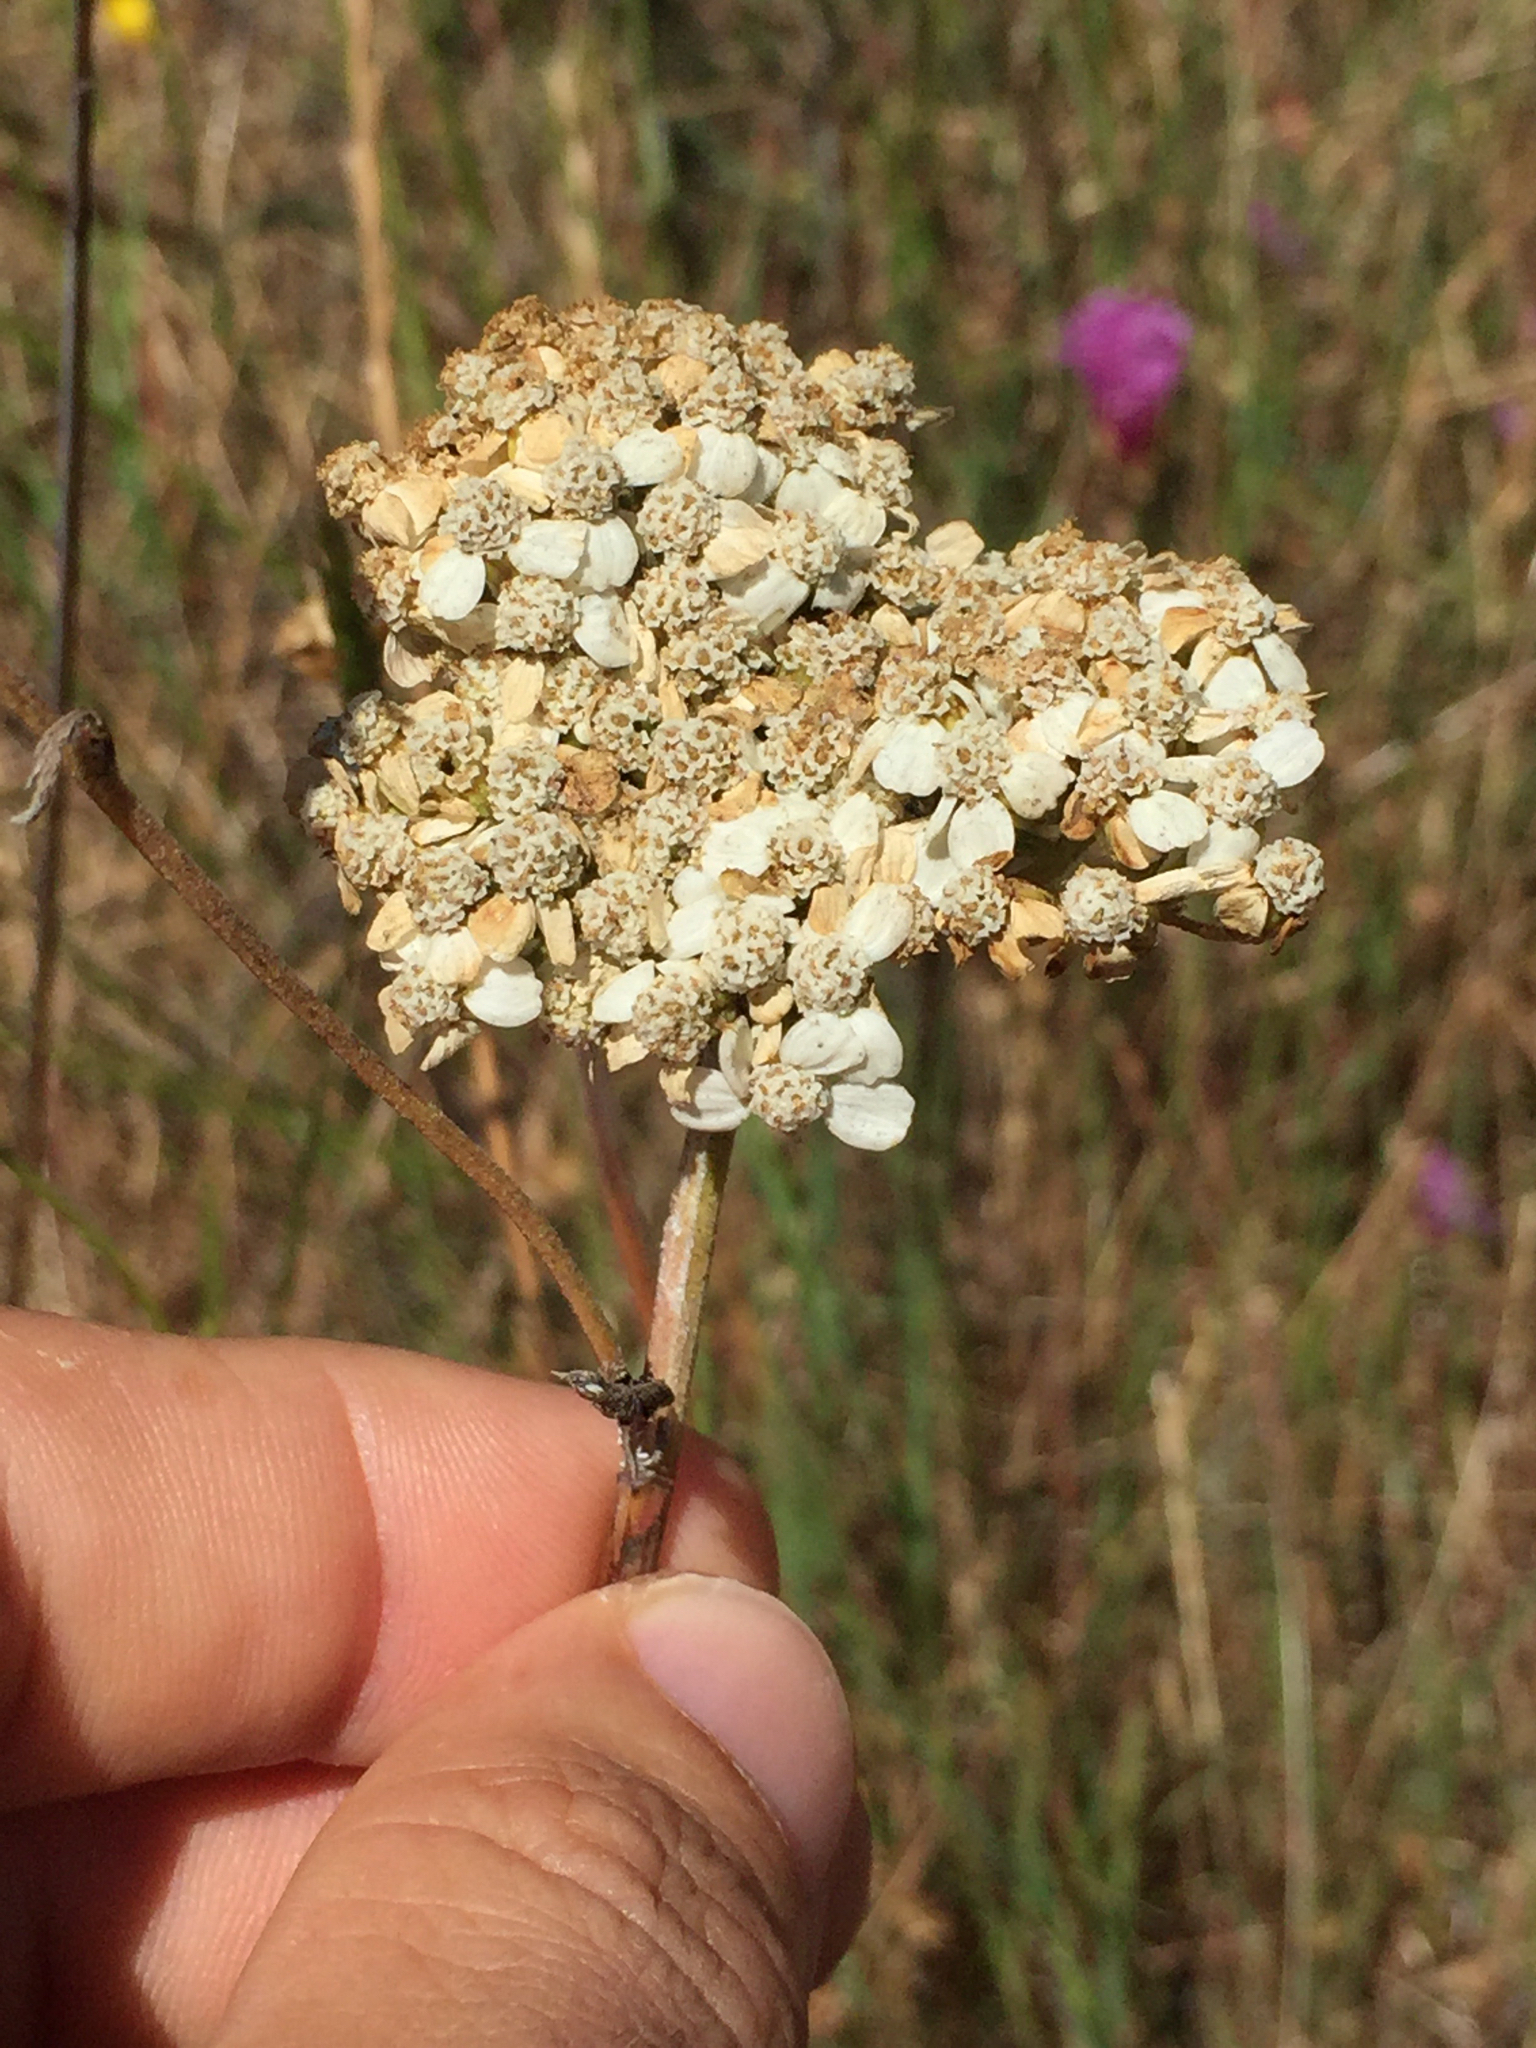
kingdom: Plantae
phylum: Tracheophyta
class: Magnoliopsida
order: Asterales
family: Asteraceae
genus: Achillea
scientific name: Achillea millefolium
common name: Yarrow
